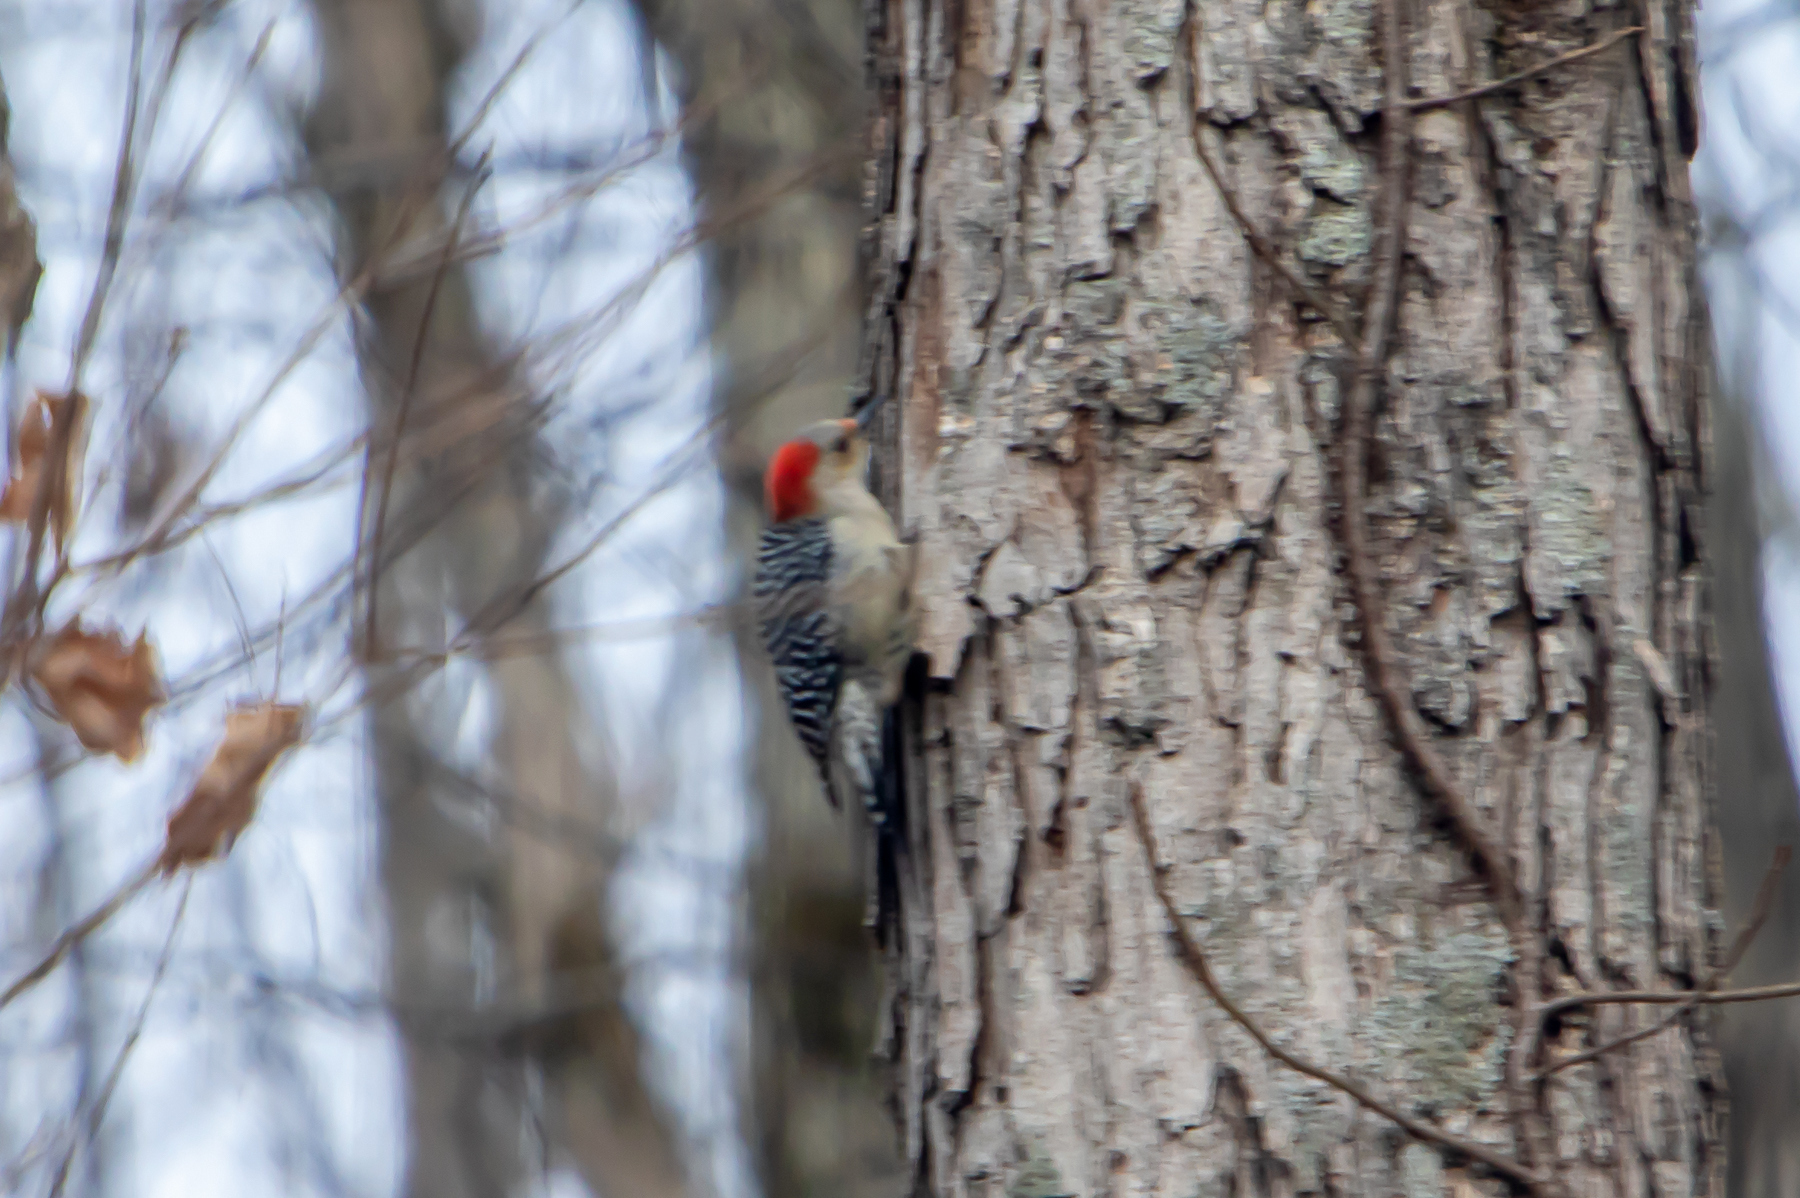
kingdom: Animalia
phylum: Chordata
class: Aves
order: Piciformes
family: Picidae
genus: Melanerpes
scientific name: Melanerpes carolinus
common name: Red-bellied woodpecker
